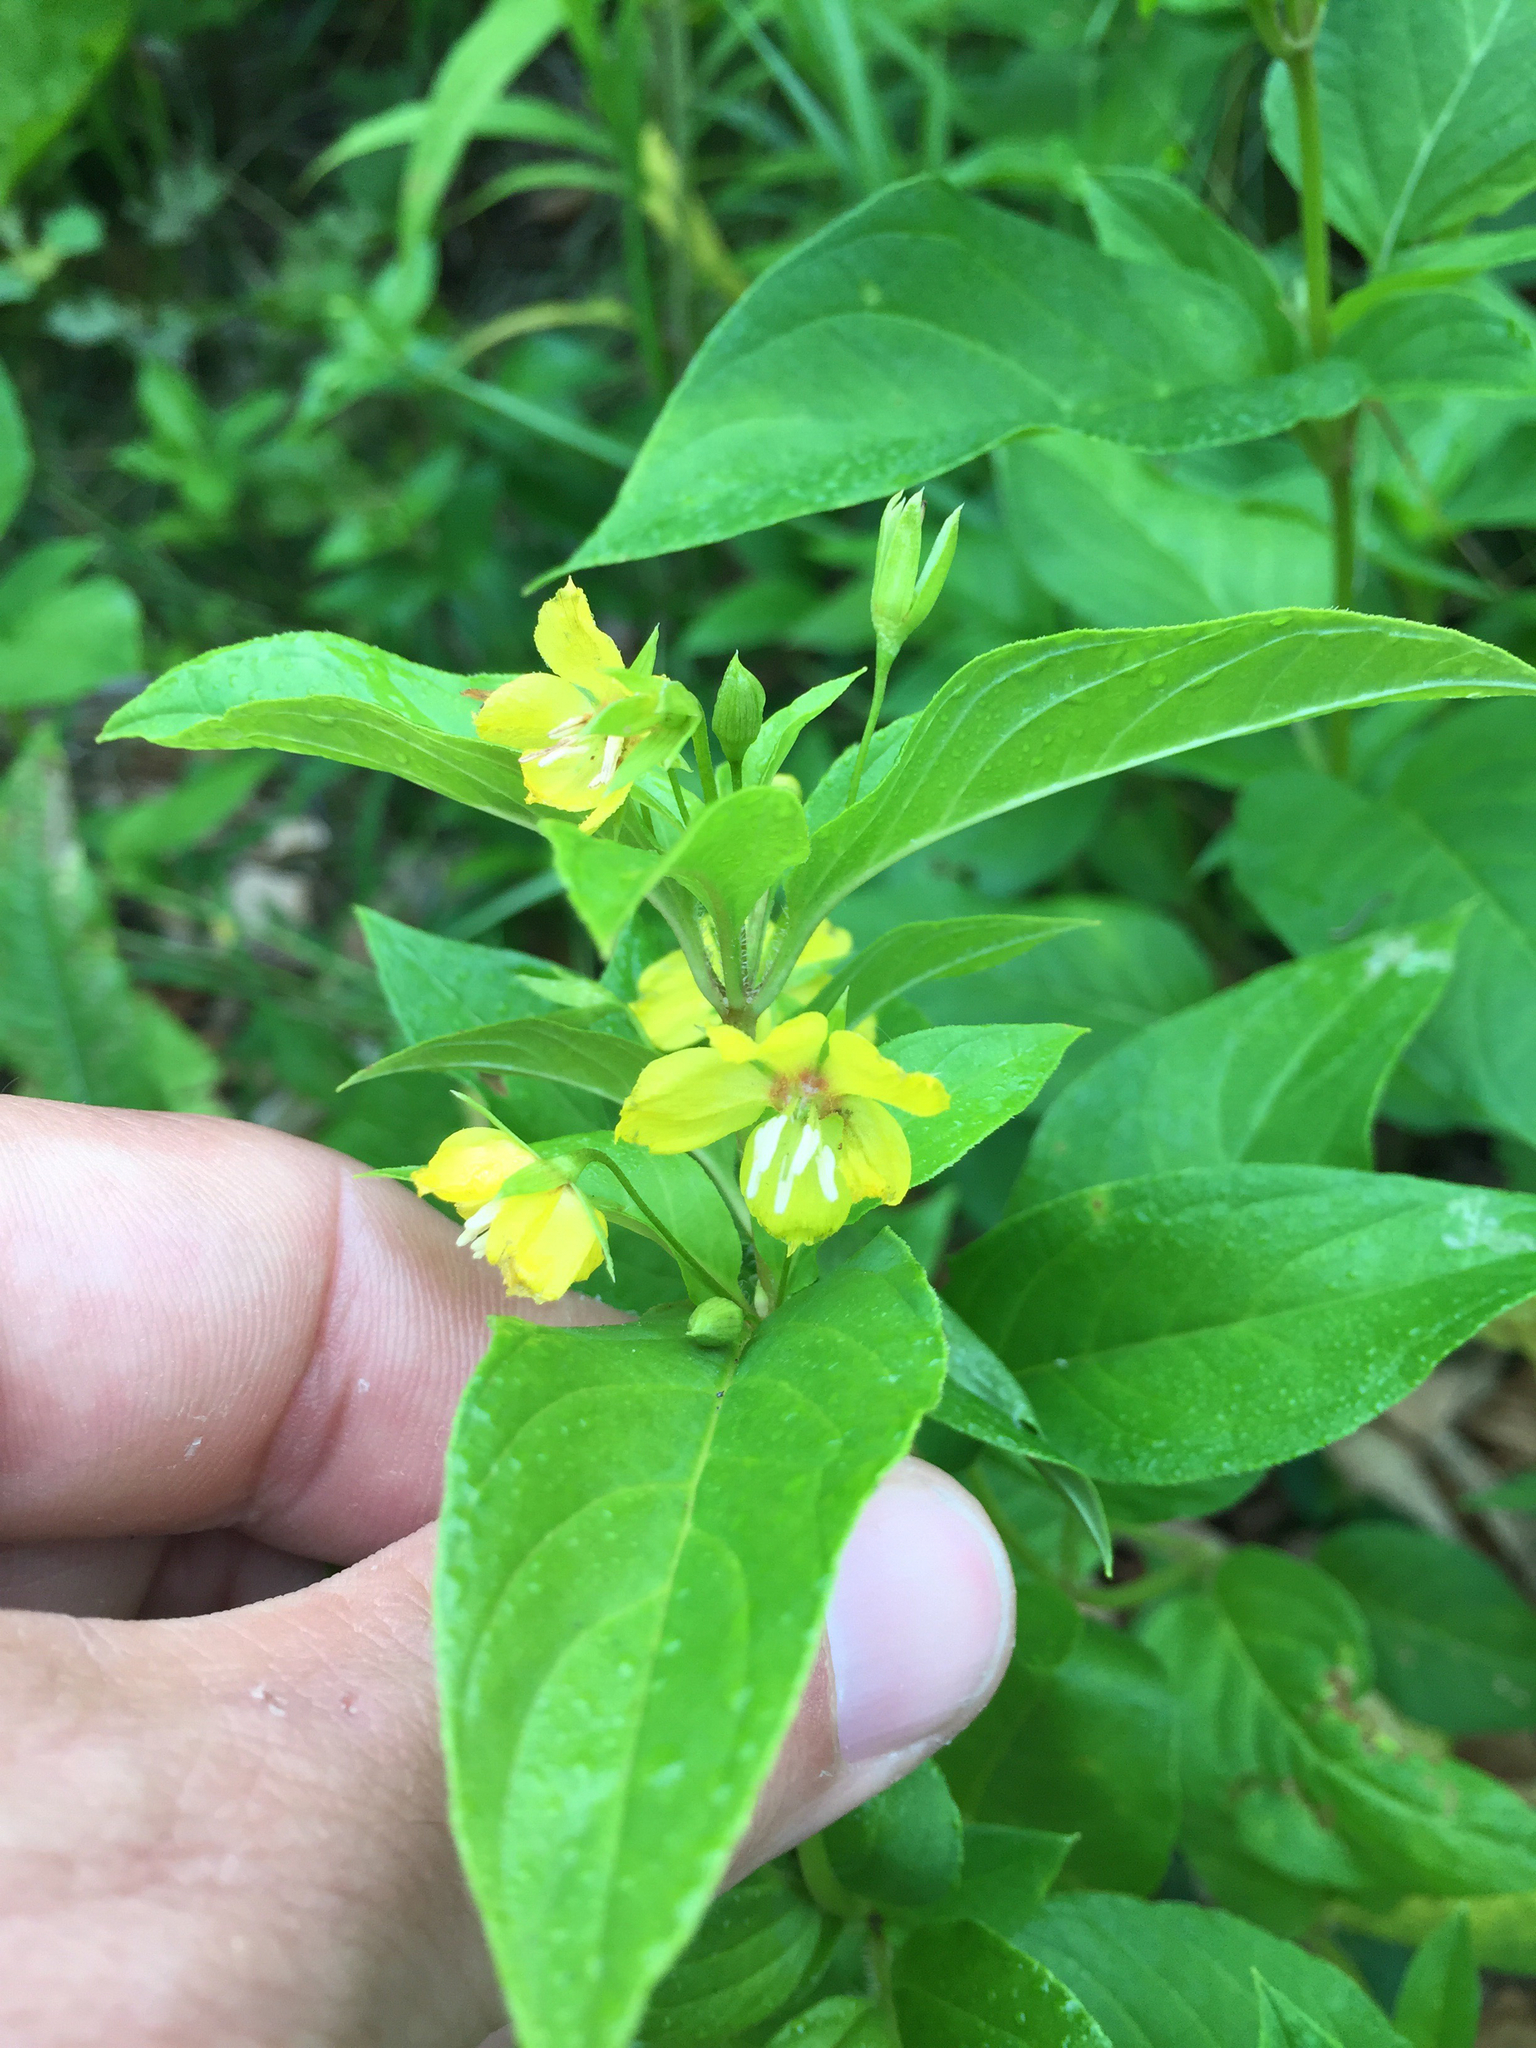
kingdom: Plantae
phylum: Tracheophyta
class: Magnoliopsida
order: Ericales
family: Primulaceae
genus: Lysimachia
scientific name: Lysimachia ciliata
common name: Fringed loosestrife
